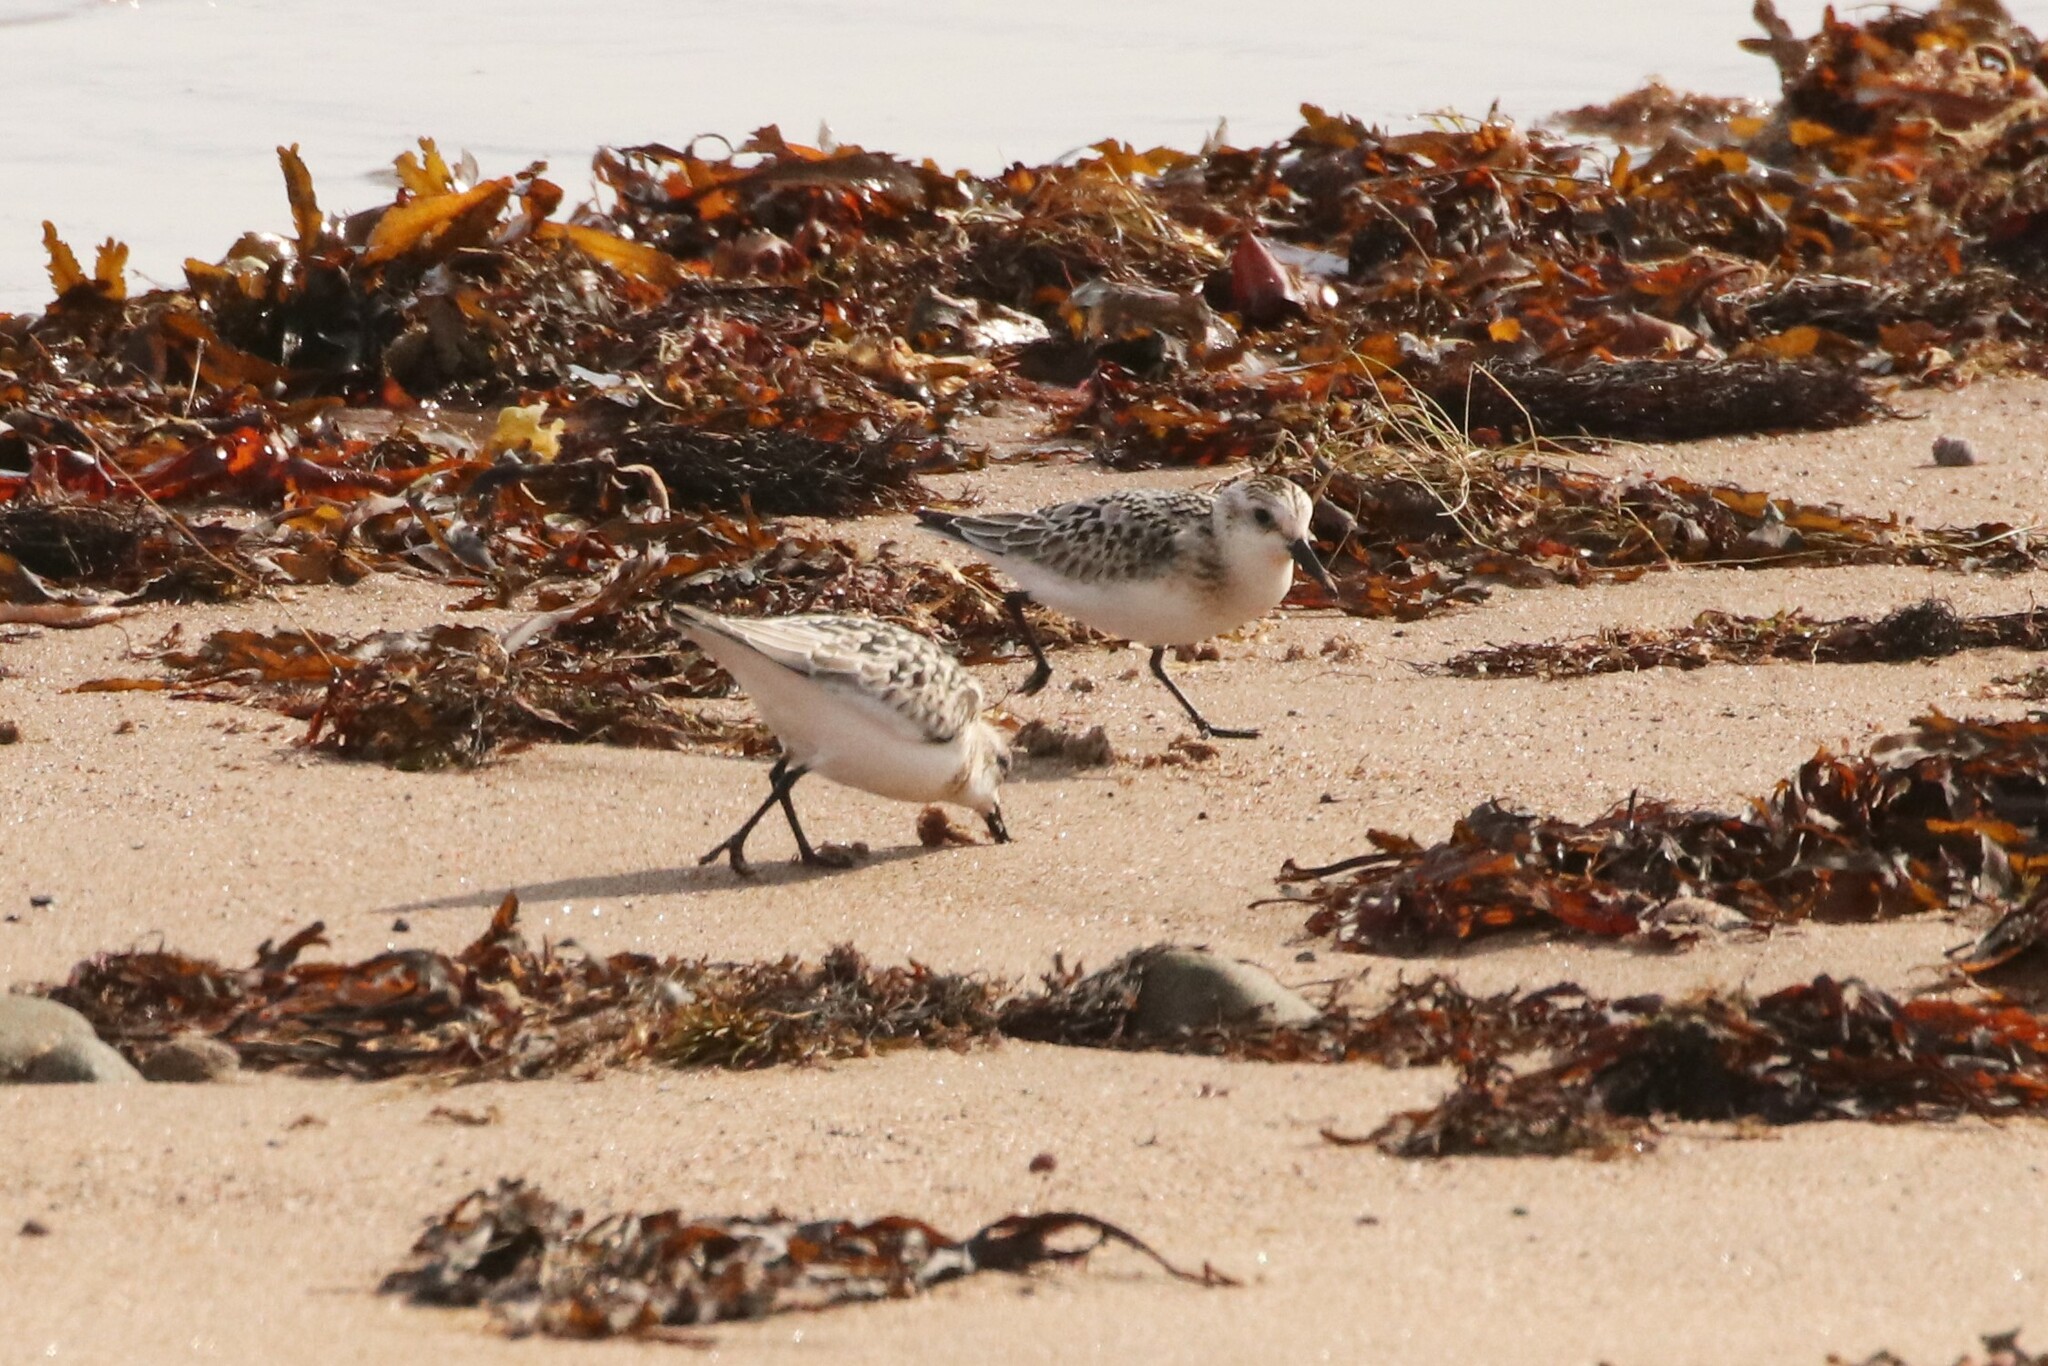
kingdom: Animalia
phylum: Chordata
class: Aves
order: Charadriiformes
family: Scolopacidae
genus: Calidris
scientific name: Calidris alba
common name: Sanderling
